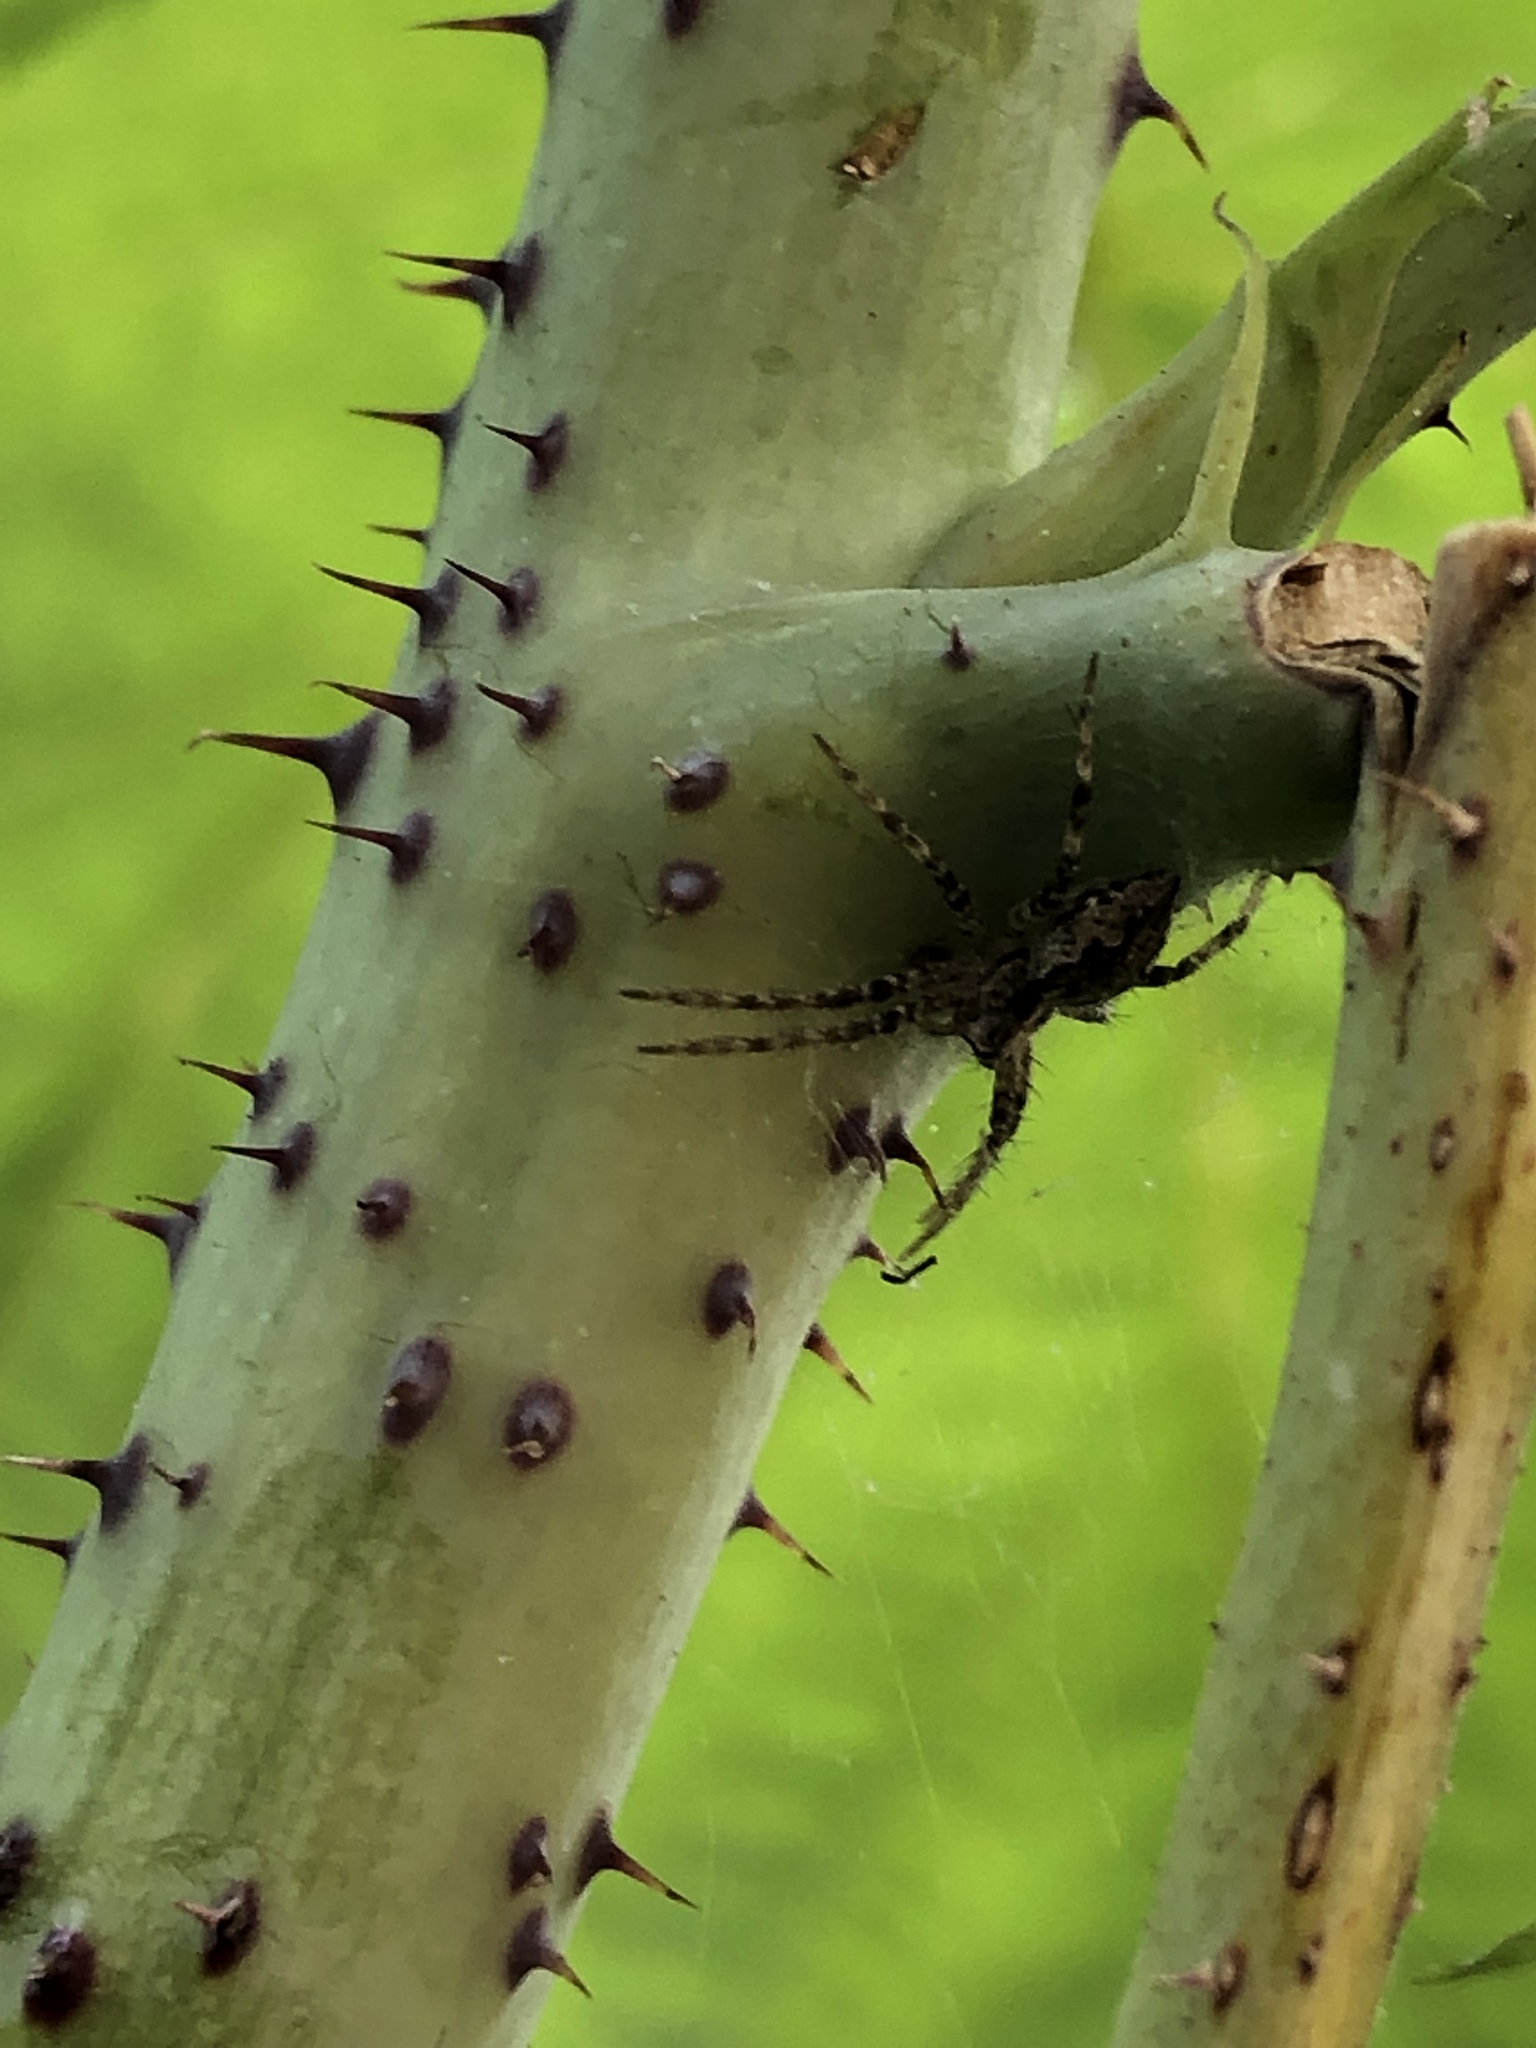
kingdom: Animalia
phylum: Arthropoda
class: Arachnida
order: Araneae
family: Pisauridae
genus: Pisaura
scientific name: Pisaura mirabilis
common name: Tent spider
